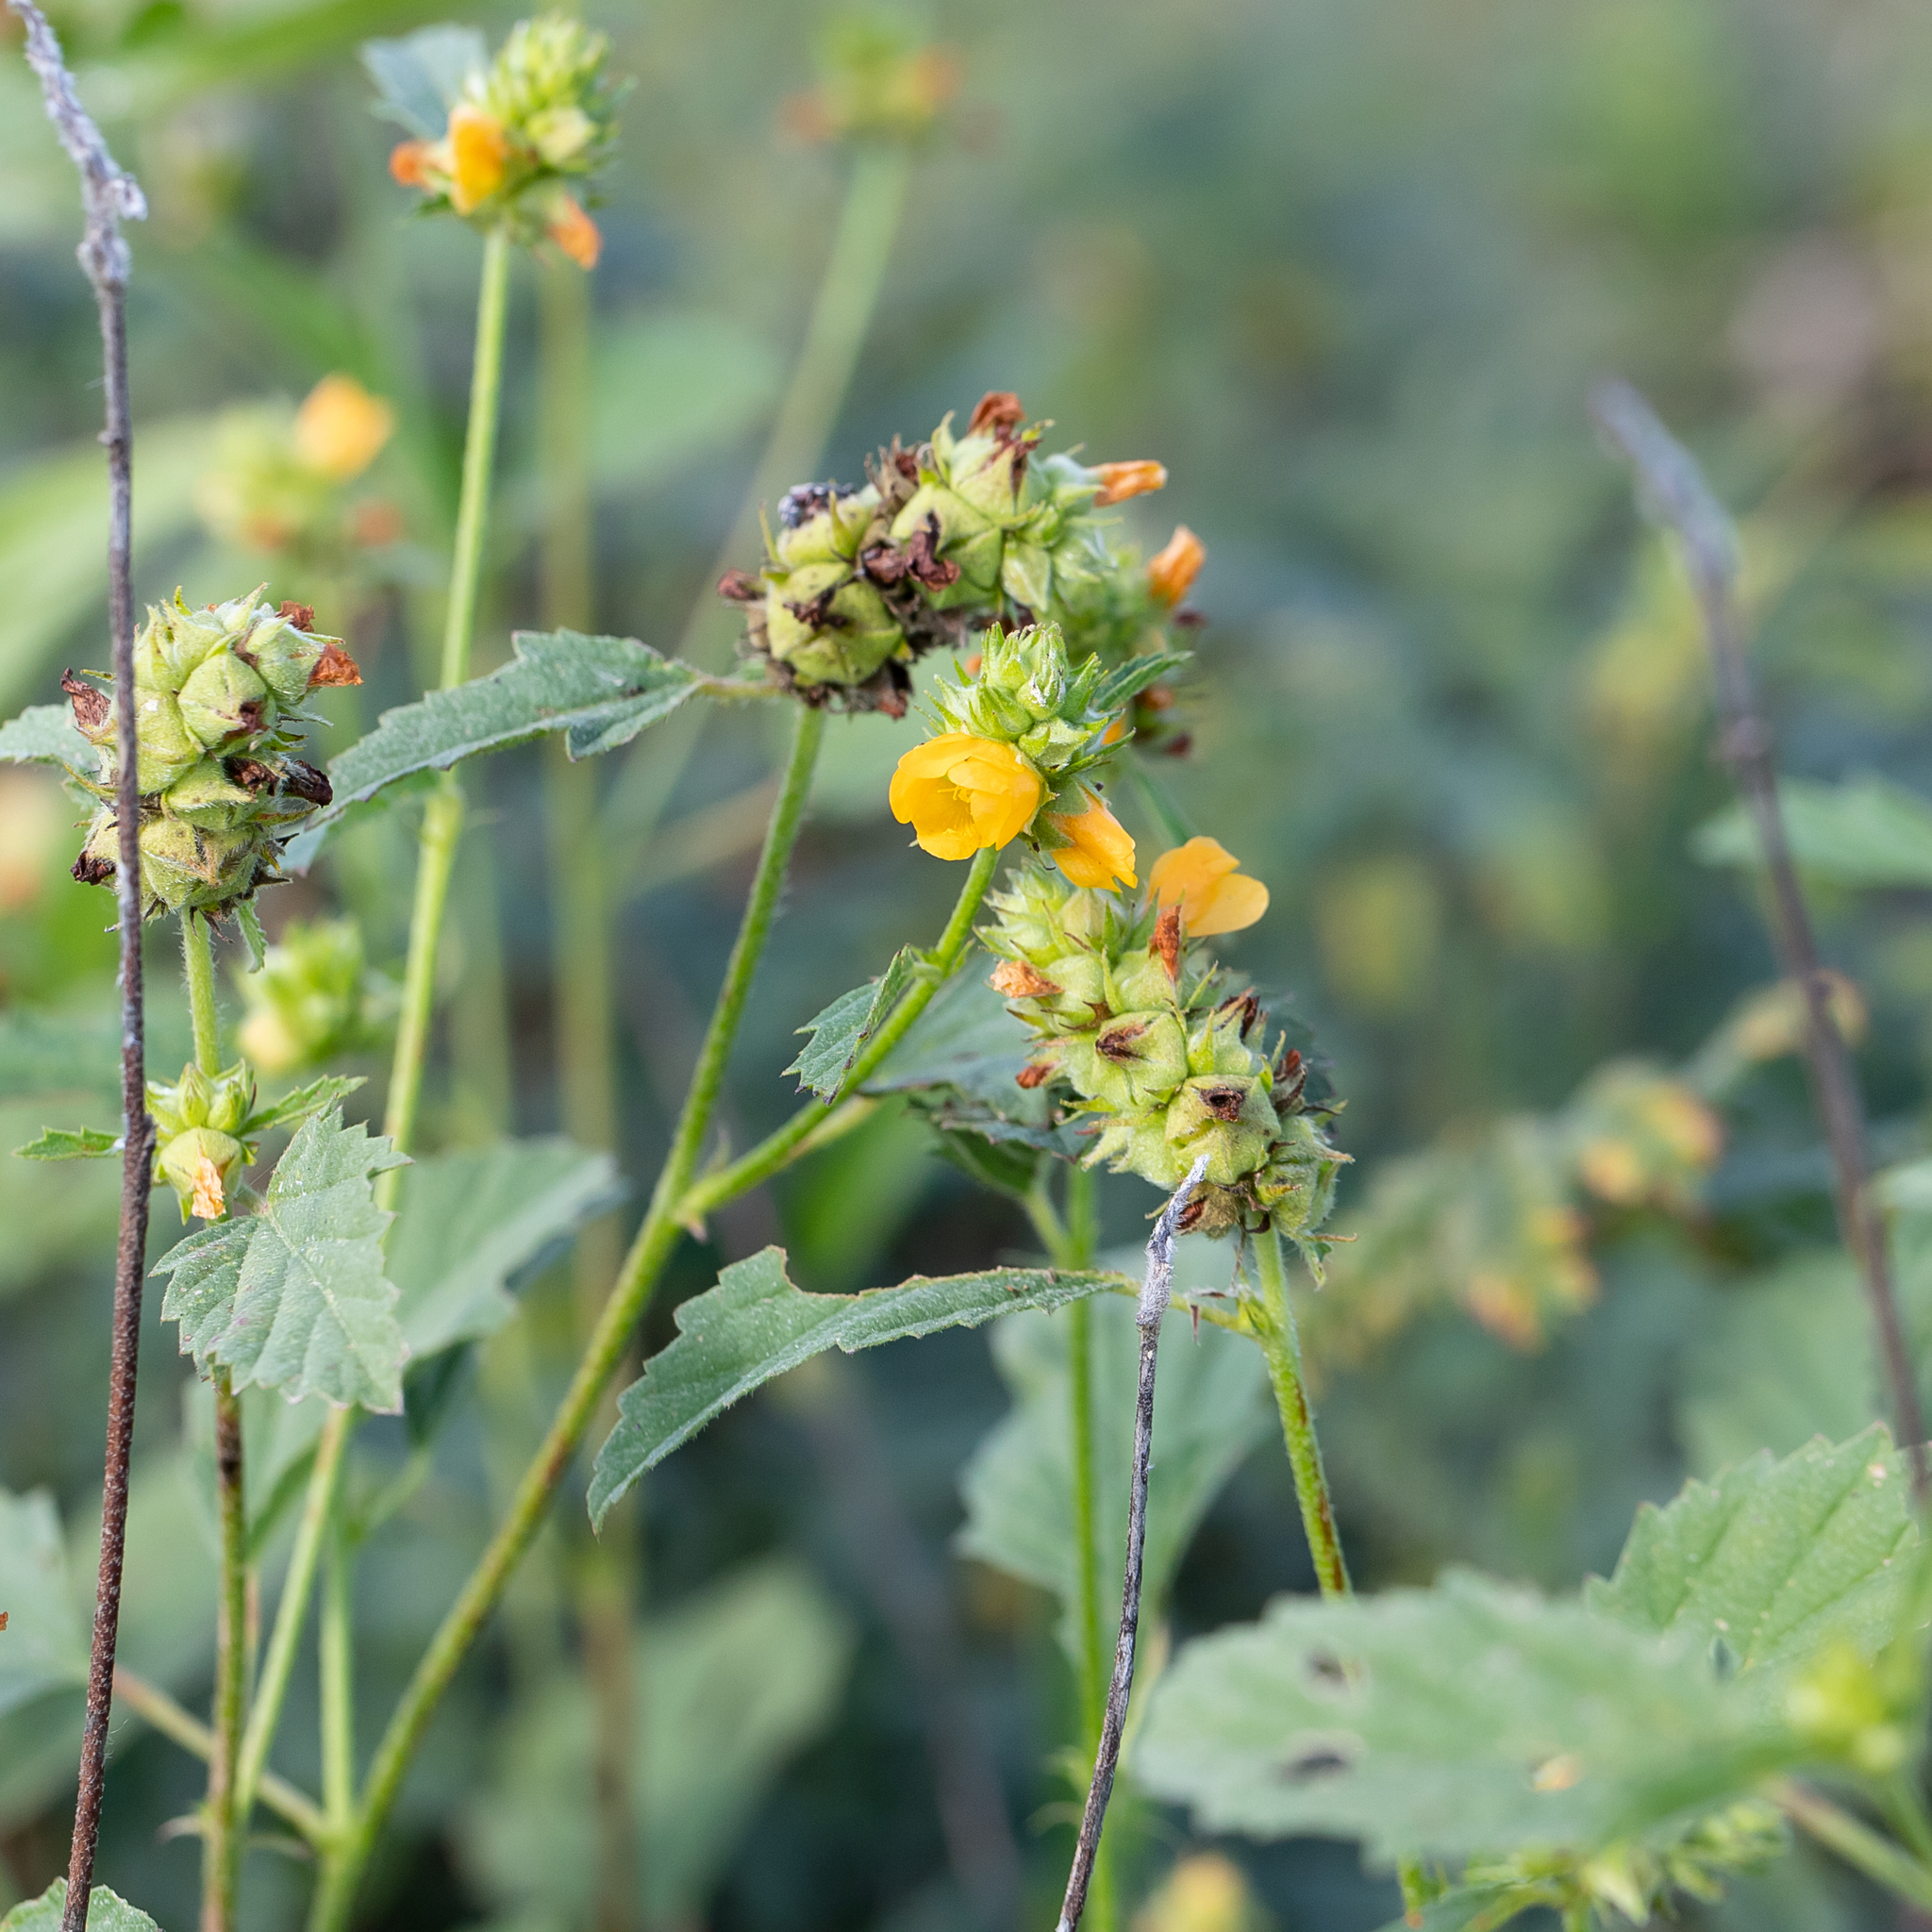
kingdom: Plantae
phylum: Tracheophyta
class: Magnoliopsida
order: Malvales
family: Malvaceae
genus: Malvastrum
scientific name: Malvastrum americanum
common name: Spiked malvastrum
